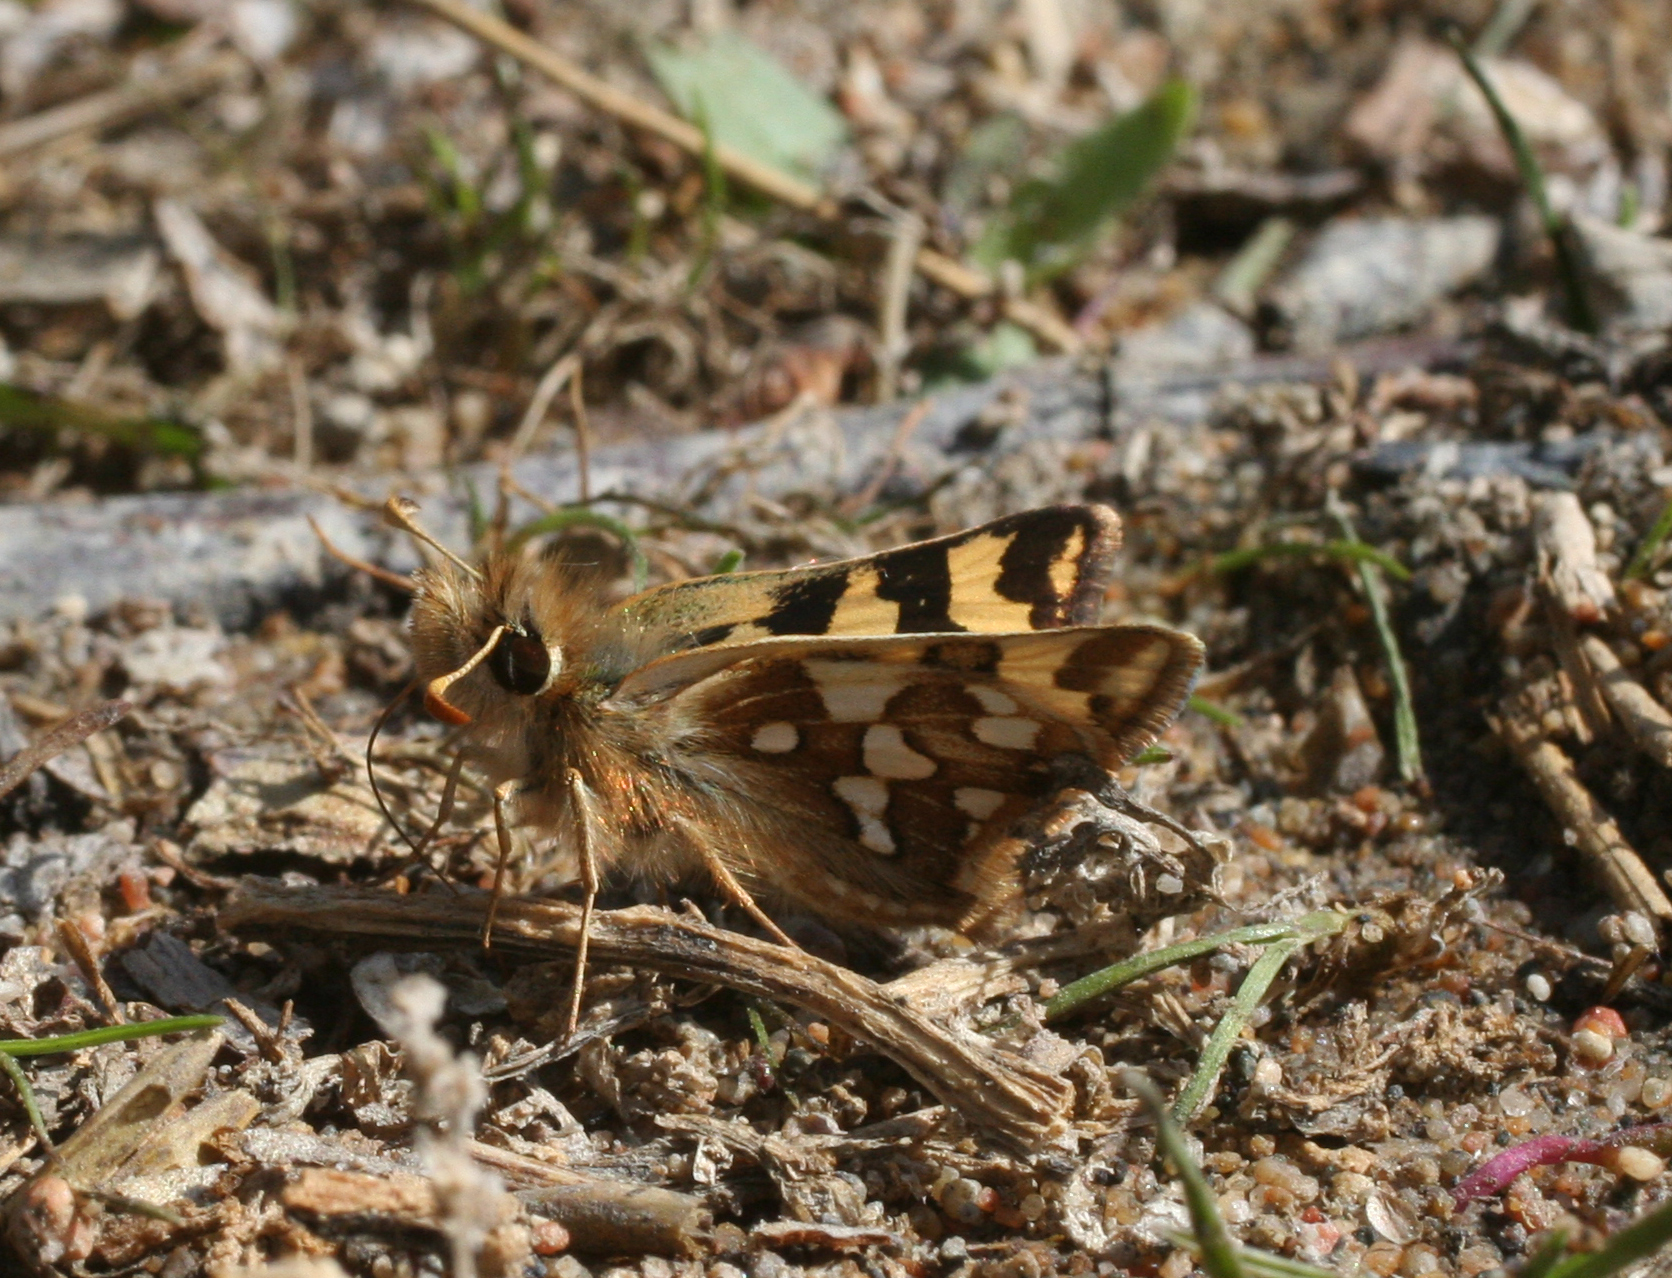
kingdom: Animalia
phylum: Arthropoda
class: Insecta
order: Lepidoptera
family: Hesperiidae
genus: Carterocephalus
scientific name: Carterocephalus argyrostigma
